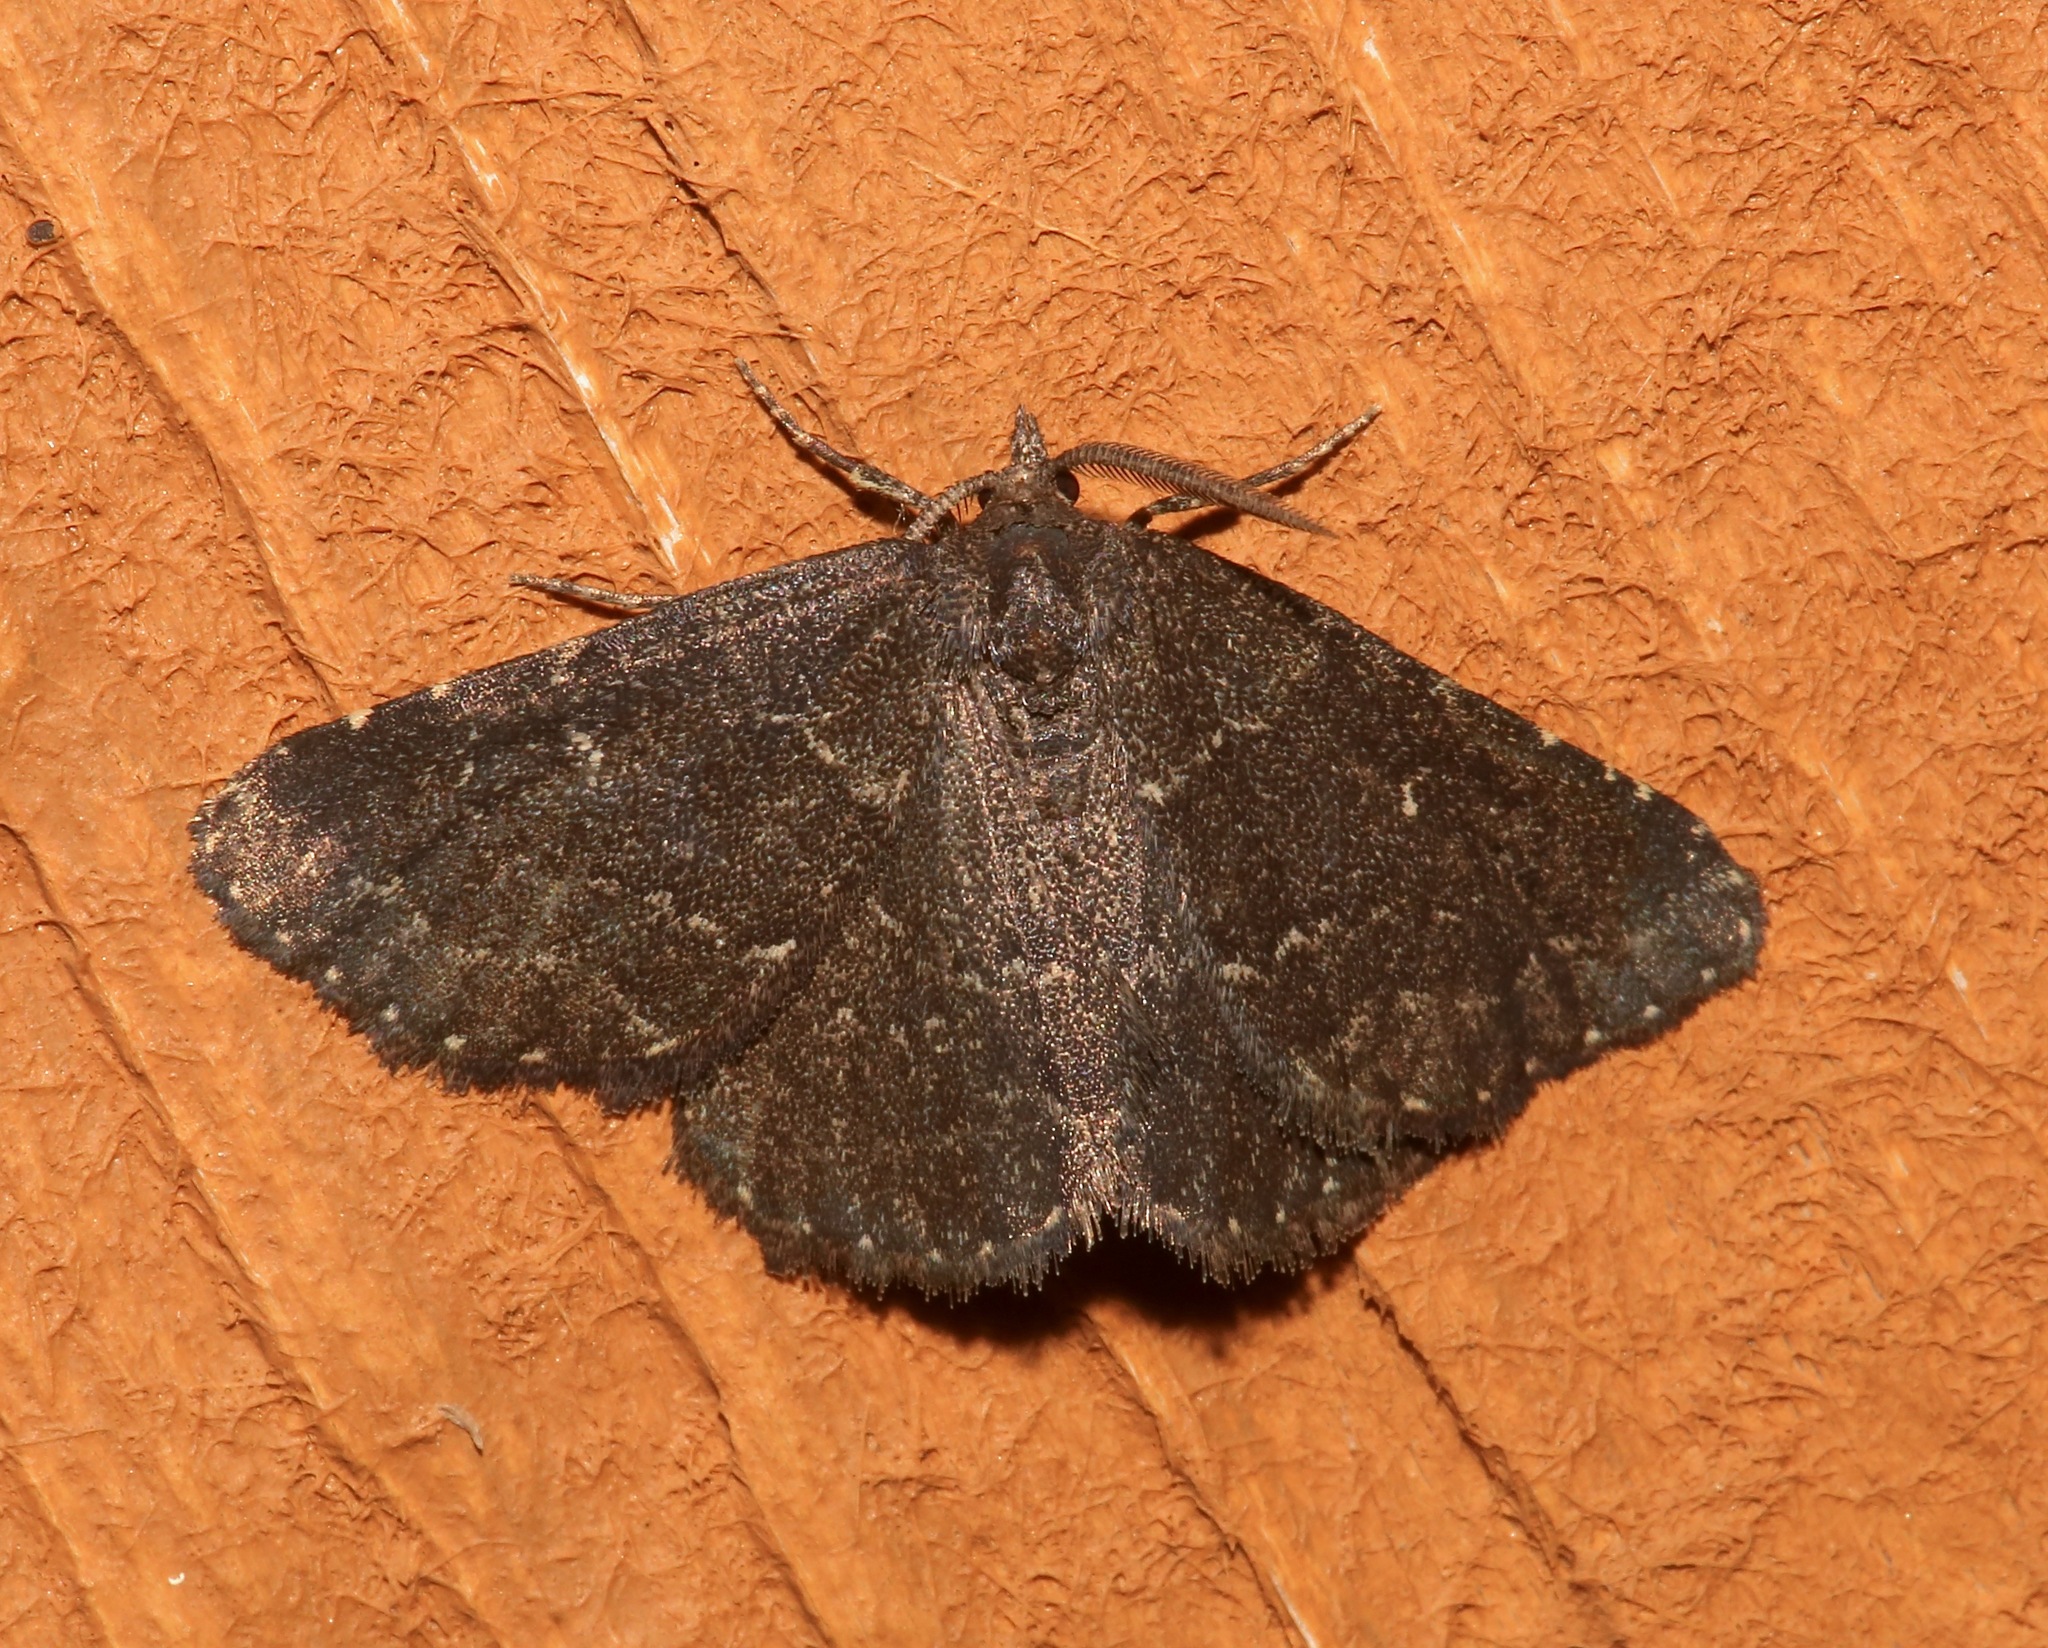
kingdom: Animalia
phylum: Arthropoda
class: Insecta
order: Lepidoptera
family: Erebidae
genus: Prosoparia
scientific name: Prosoparia floridana
